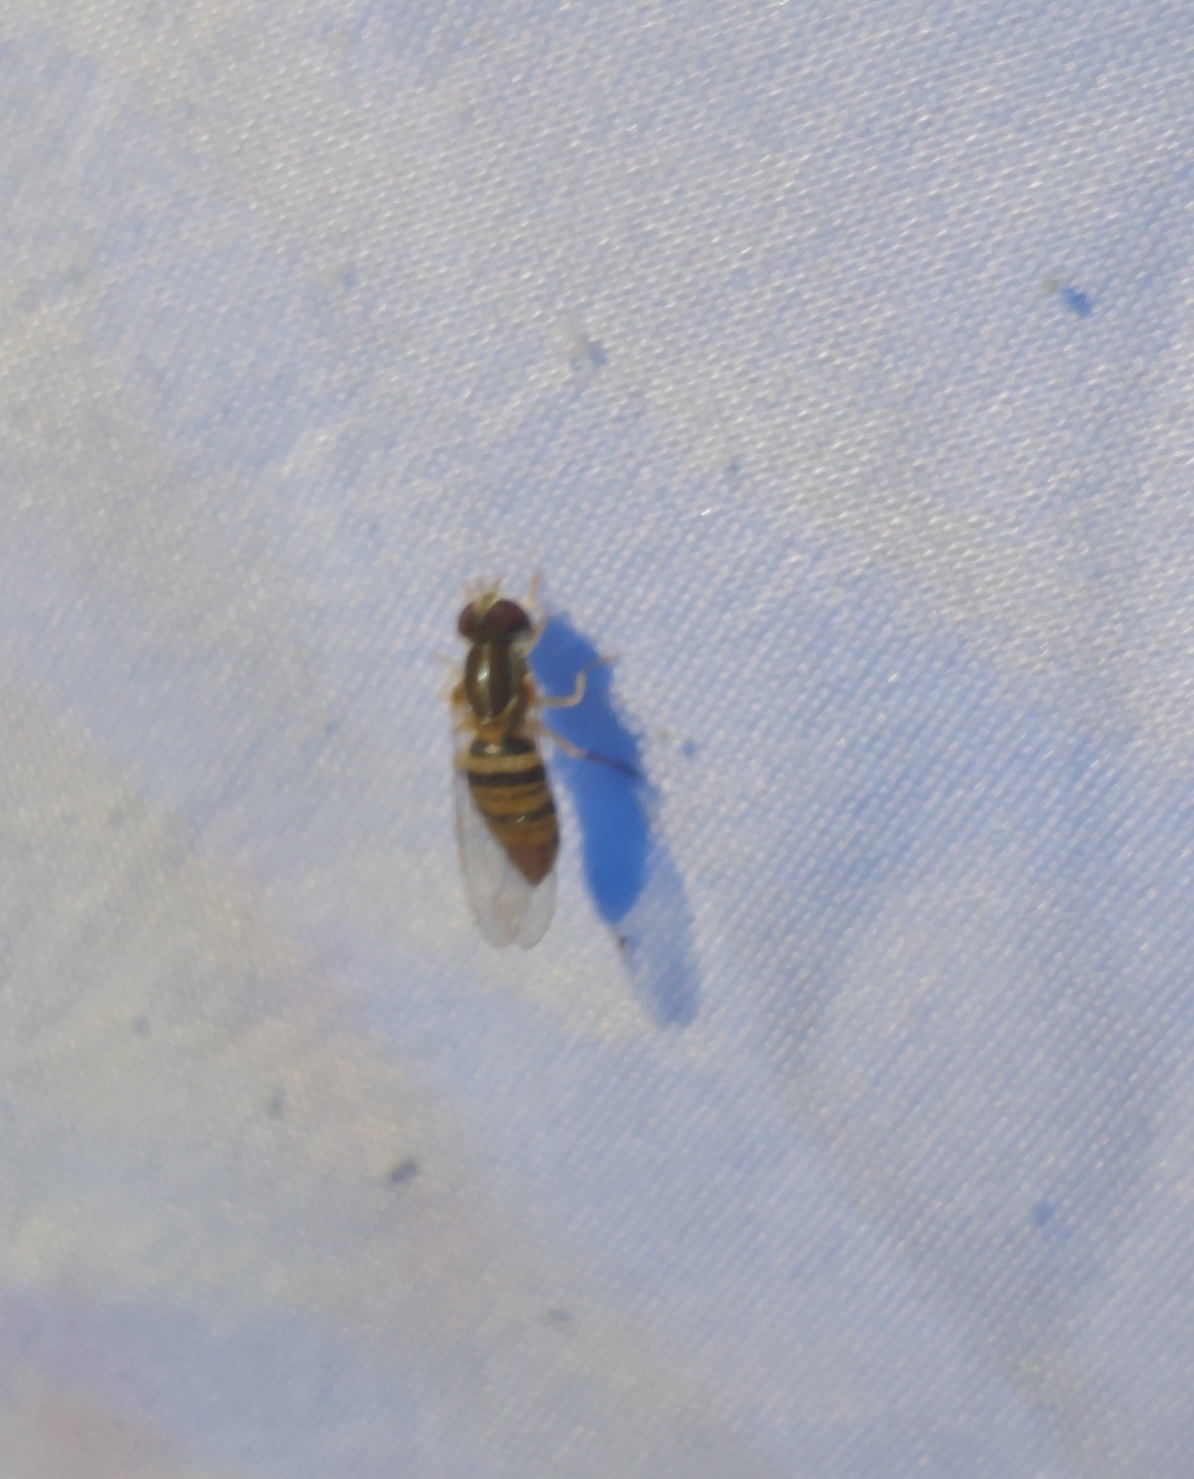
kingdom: Animalia
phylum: Arthropoda
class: Insecta
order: Diptera
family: Syrphidae
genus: Toxomerus
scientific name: Toxomerus politus
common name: Maize calligrapher
